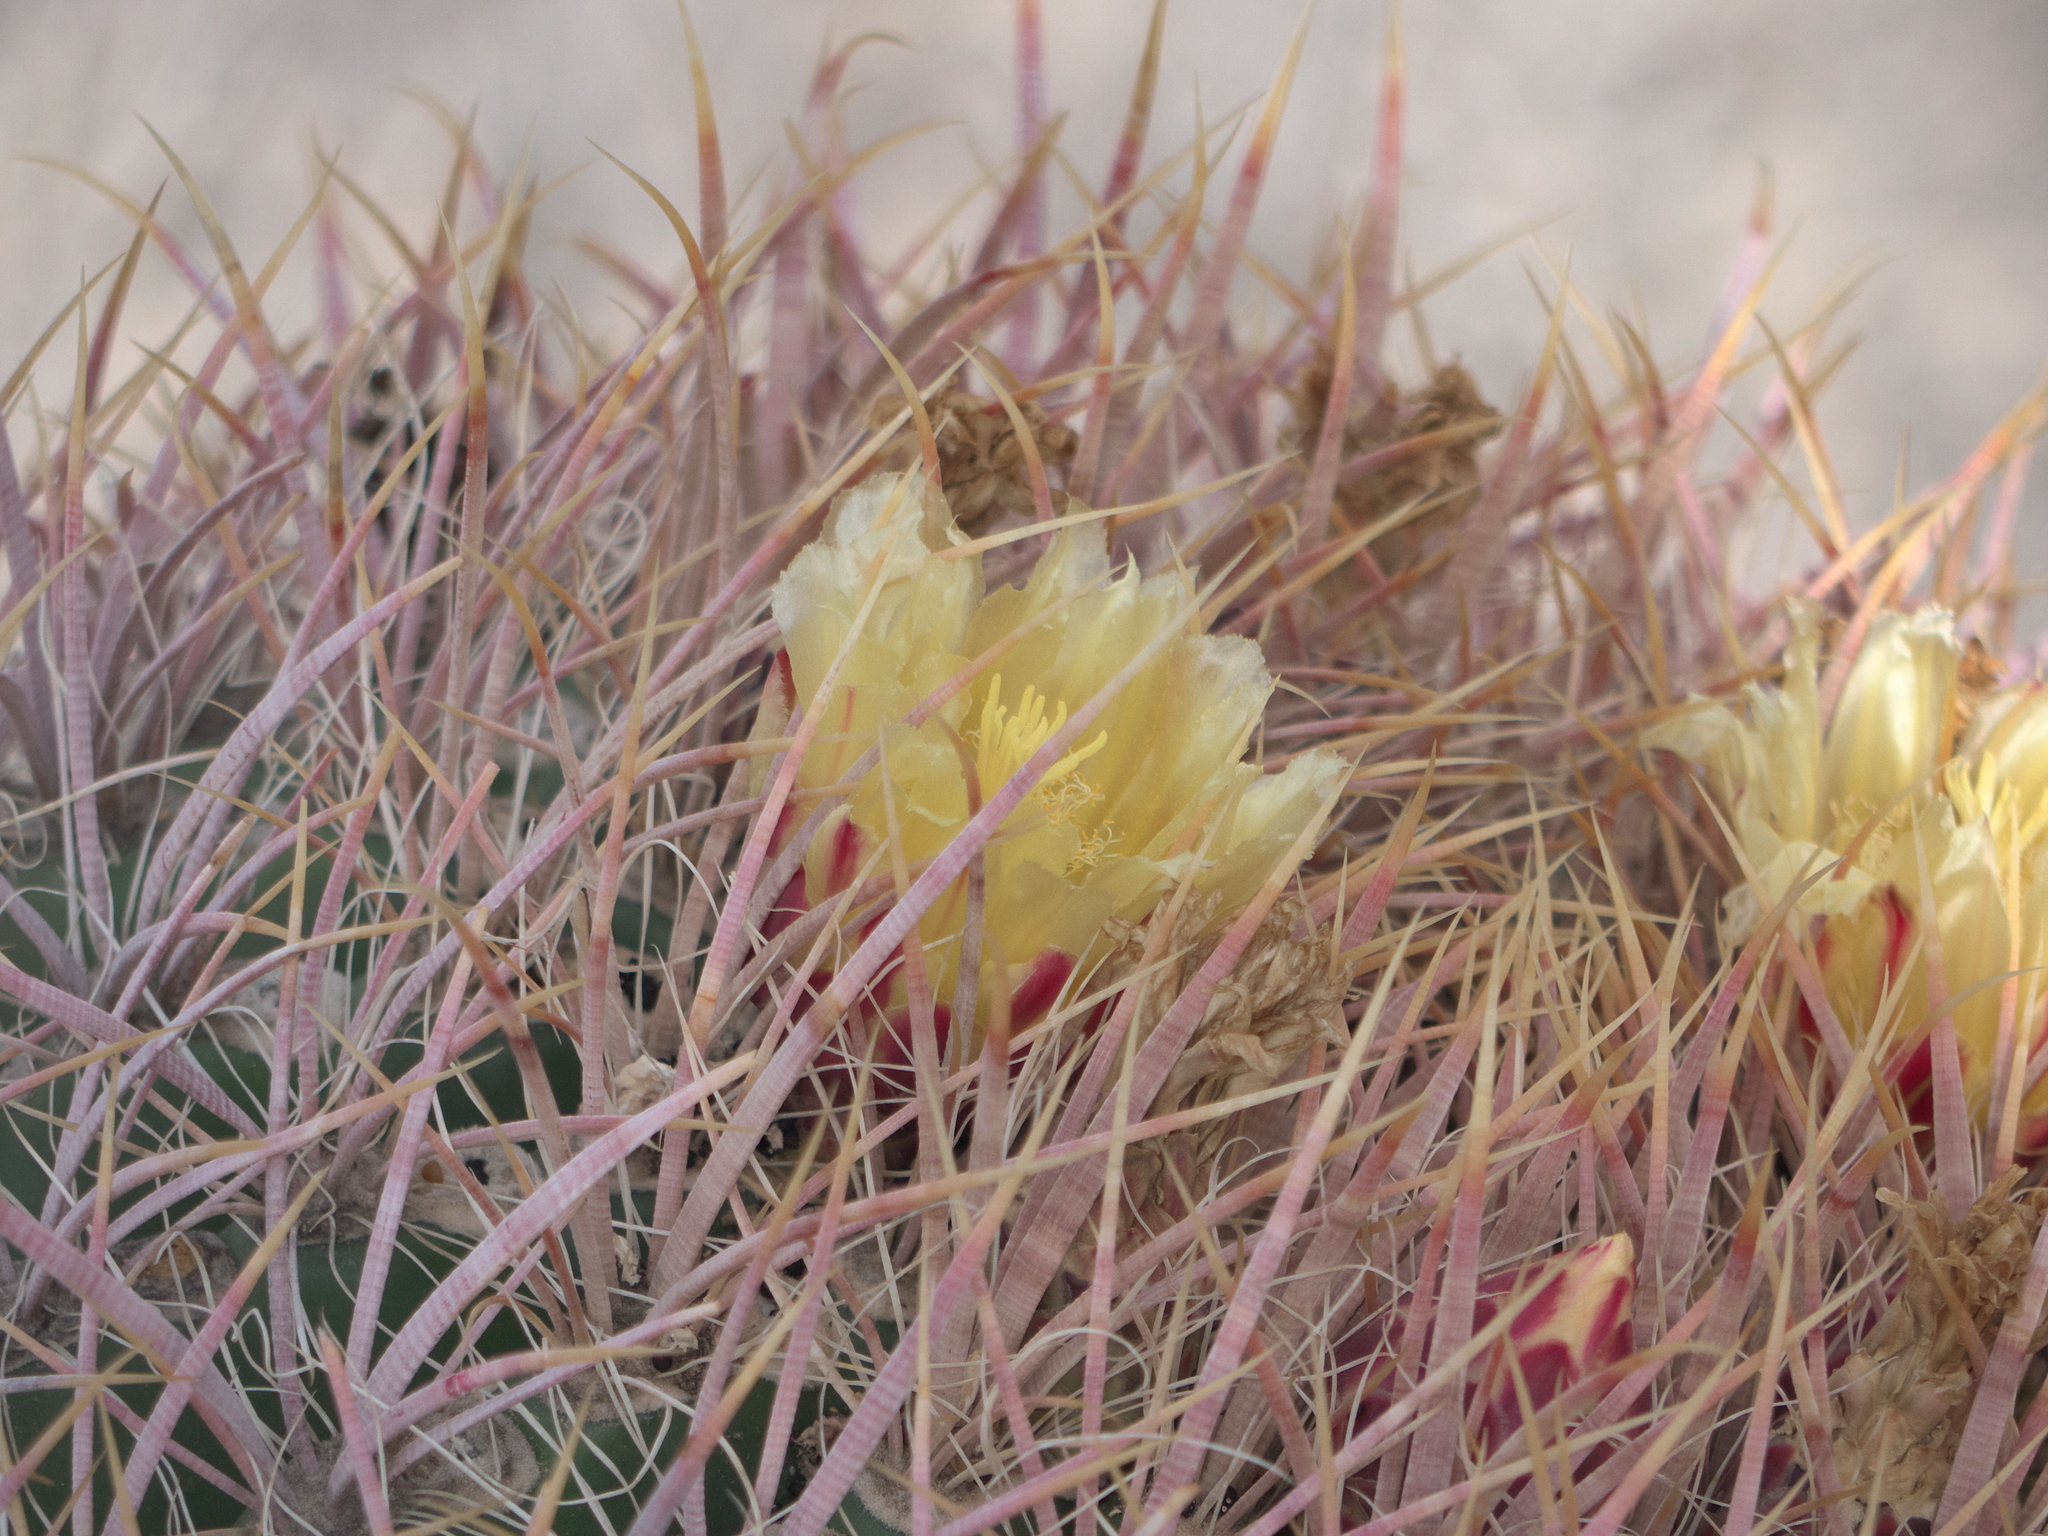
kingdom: Plantae
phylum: Tracheophyta
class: Magnoliopsida
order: Caryophyllales
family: Cactaceae
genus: Ferocactus
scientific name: Ferocactus cylindraceus
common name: California barrel cactus
